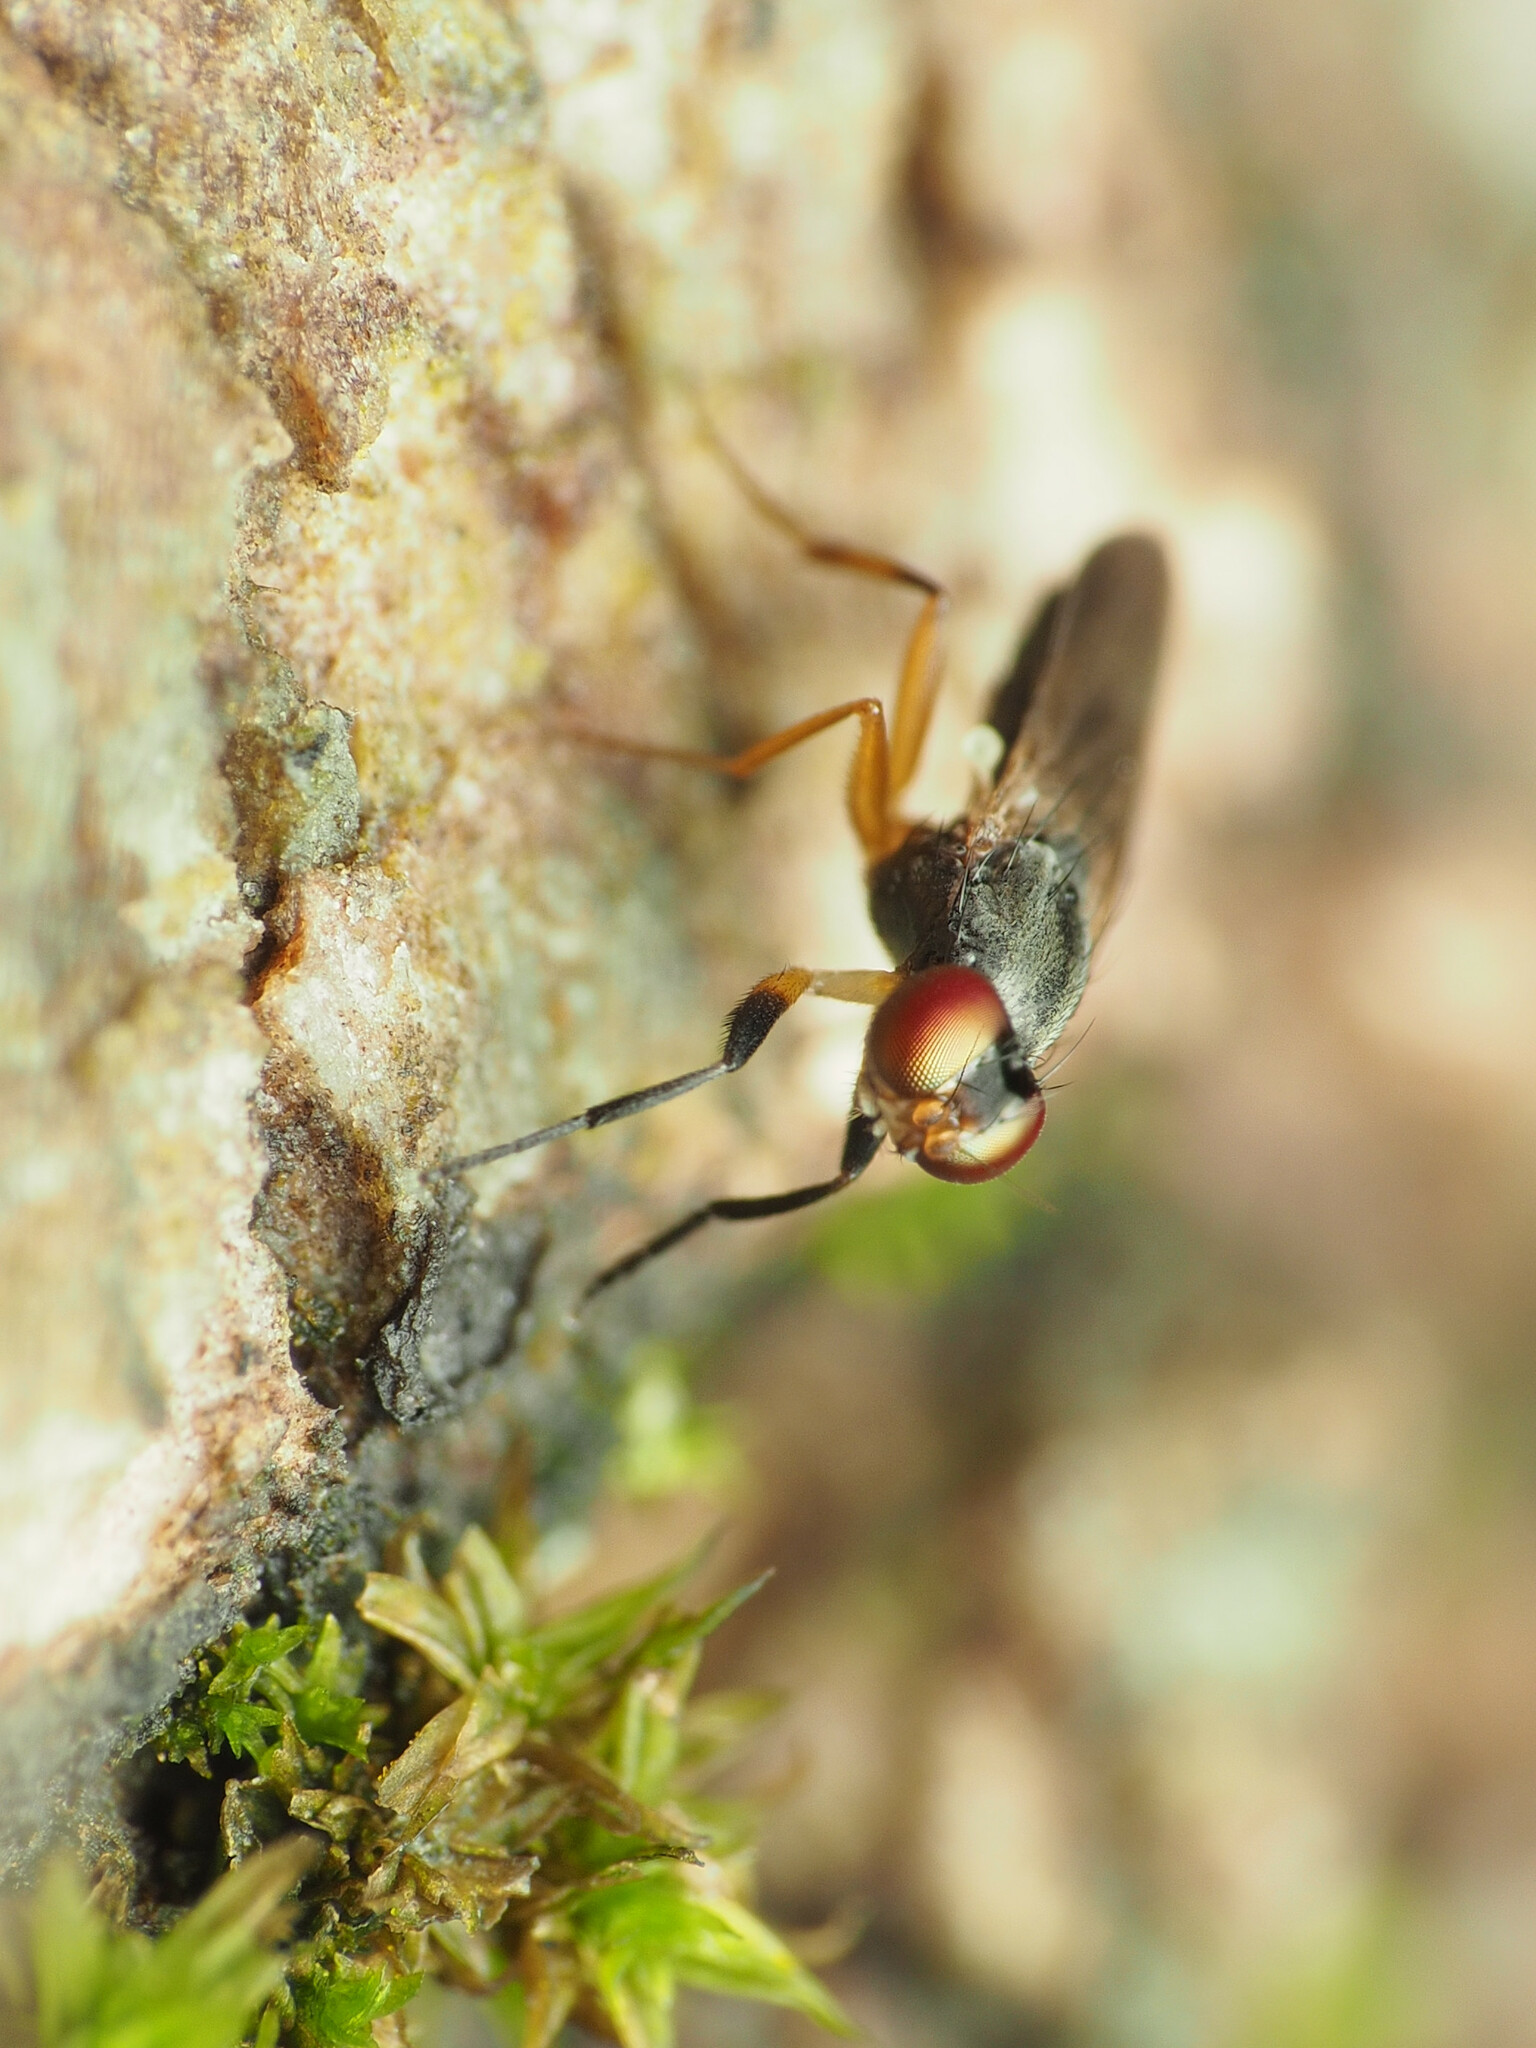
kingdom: Animalia
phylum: Arthropoda
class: Insecta
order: Diptera
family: Clusiidae
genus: Heteromeringia
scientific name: Heteromeringia nitida
